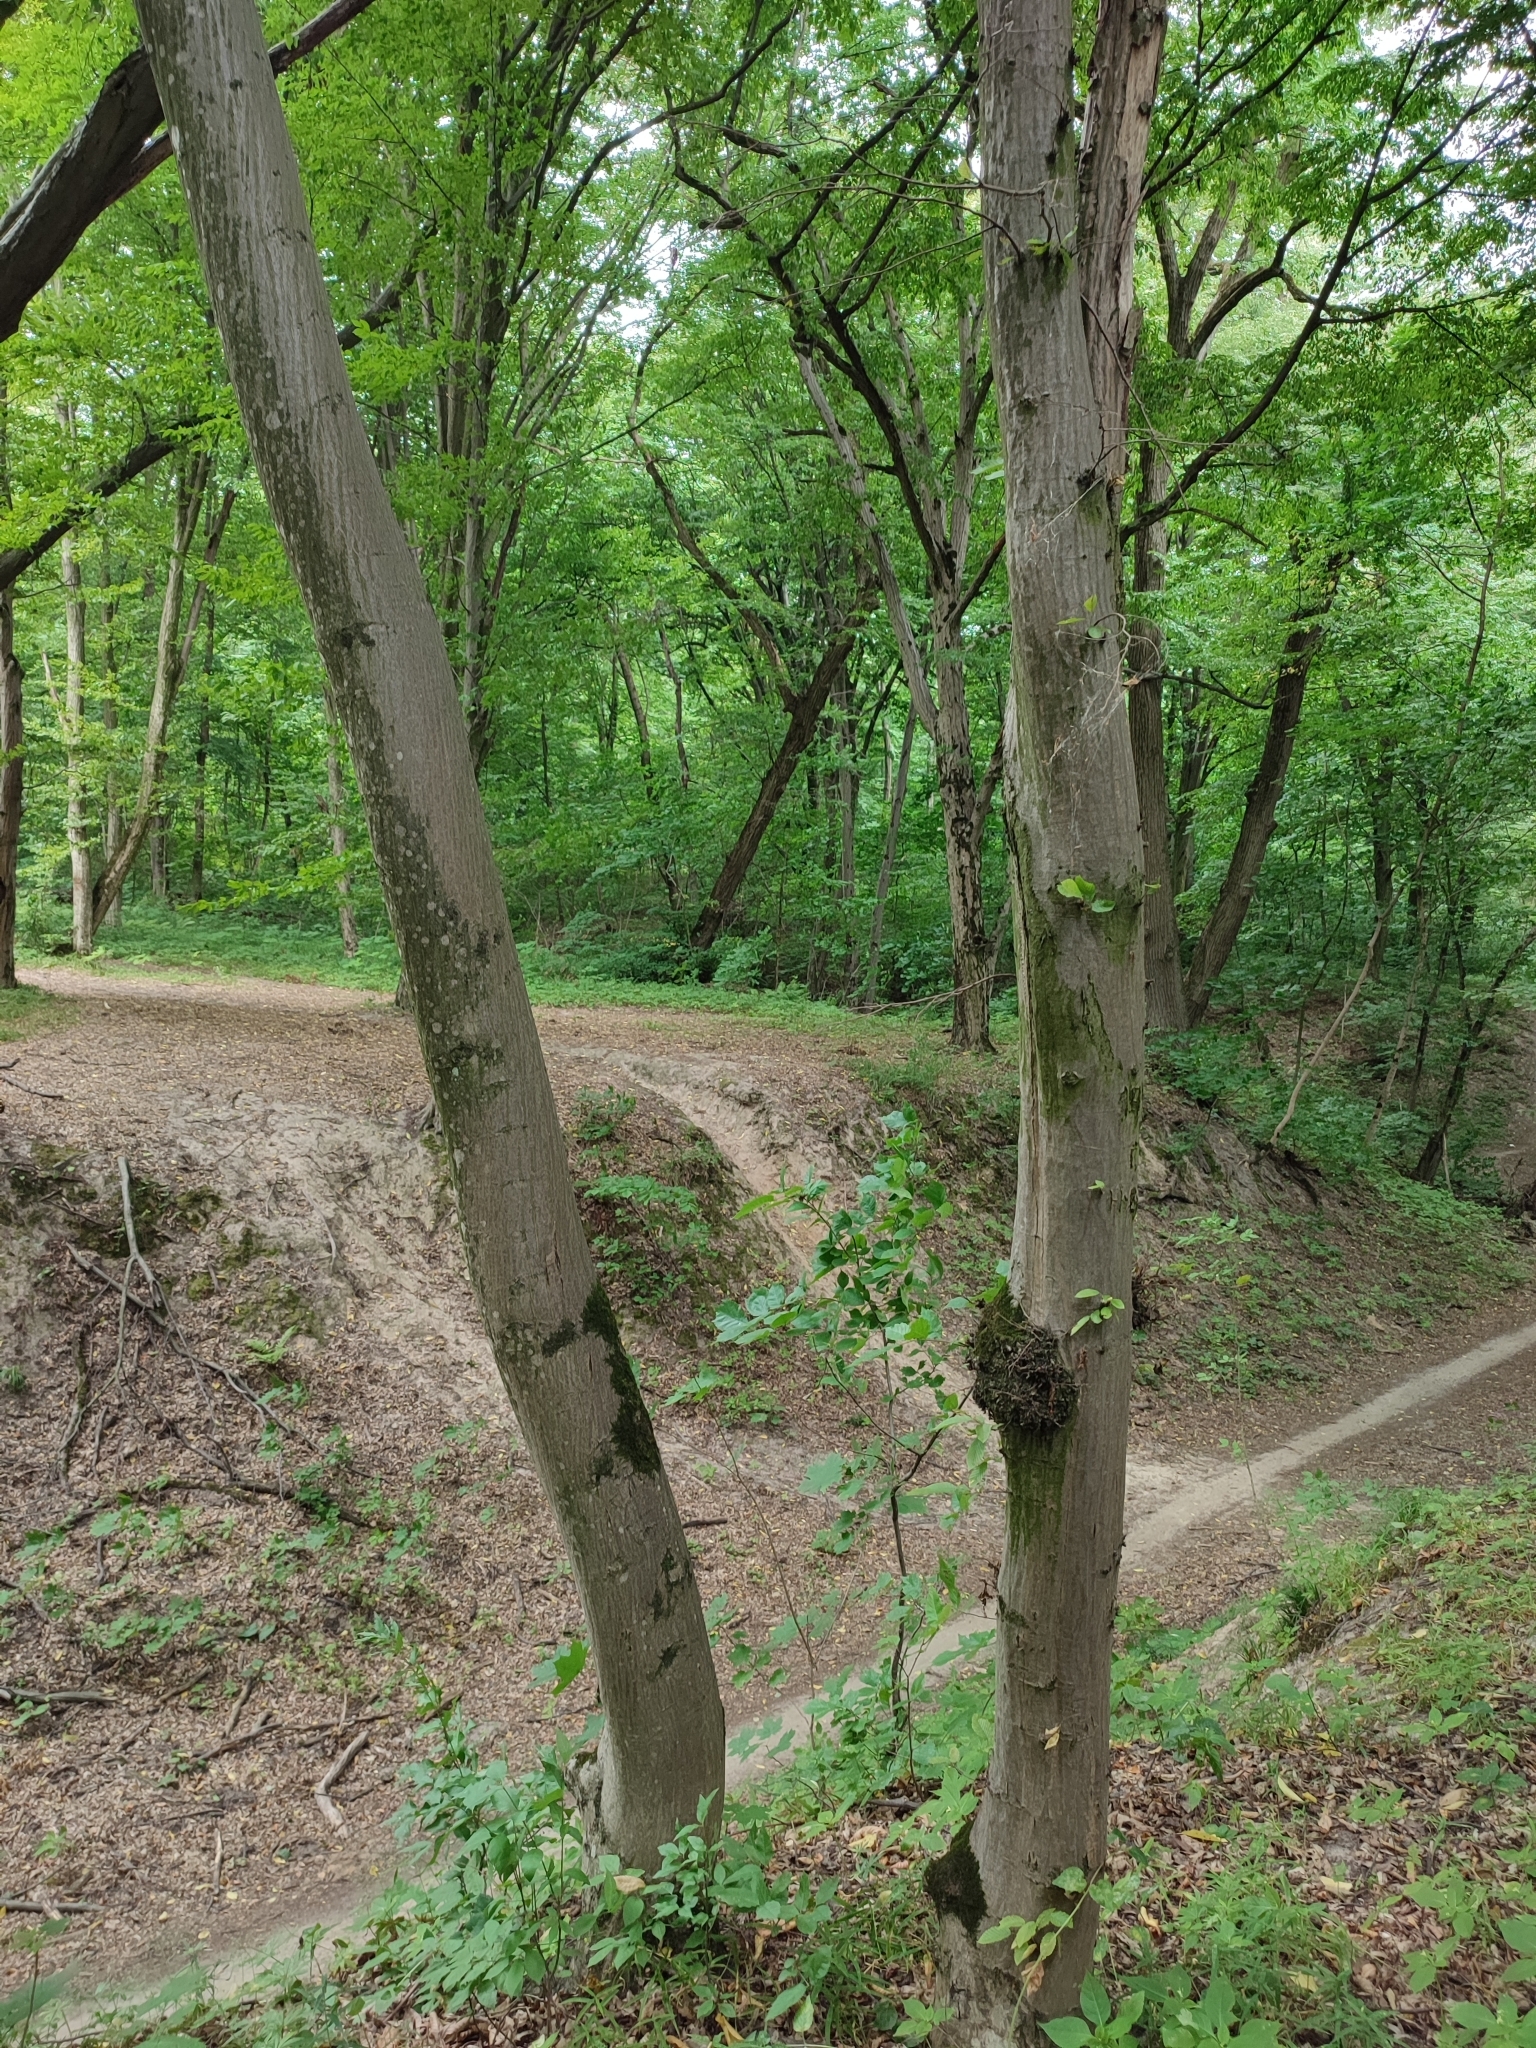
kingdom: Plantae
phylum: Tracheophyta
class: Magnoliopsida
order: Fagales
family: Betulaceae
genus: Carpinus
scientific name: Carpinus betulus
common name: Hornbeam
